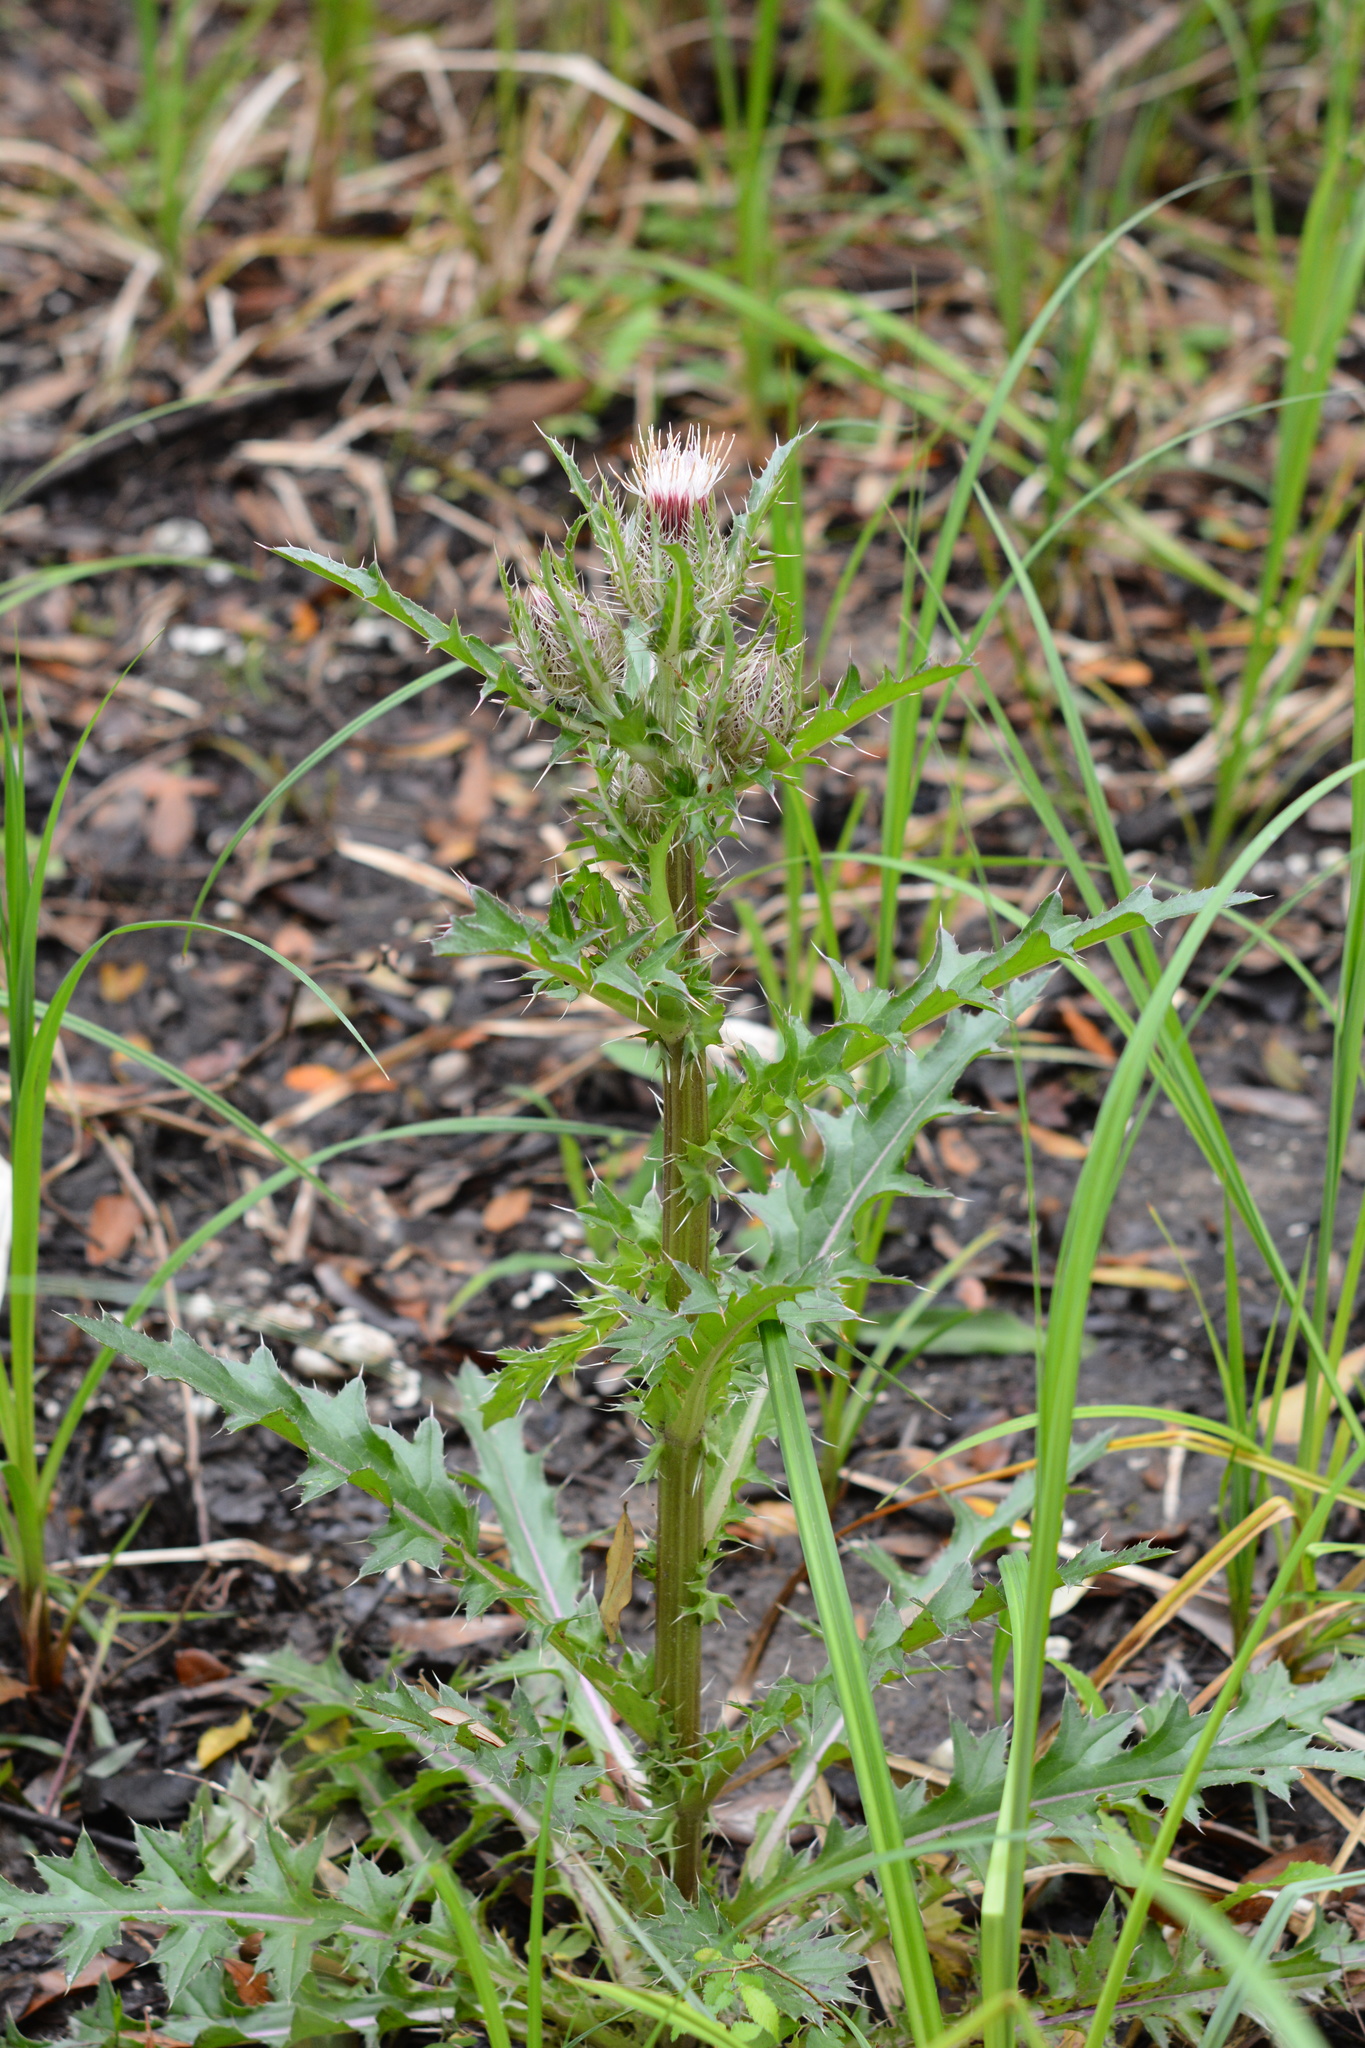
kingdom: Plantae
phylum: Tracheophyta
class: Magnoliopsida
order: Asterales
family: Asteraceae
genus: Cirsium
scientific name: Cirsium horridulum
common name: Bristly thistle
